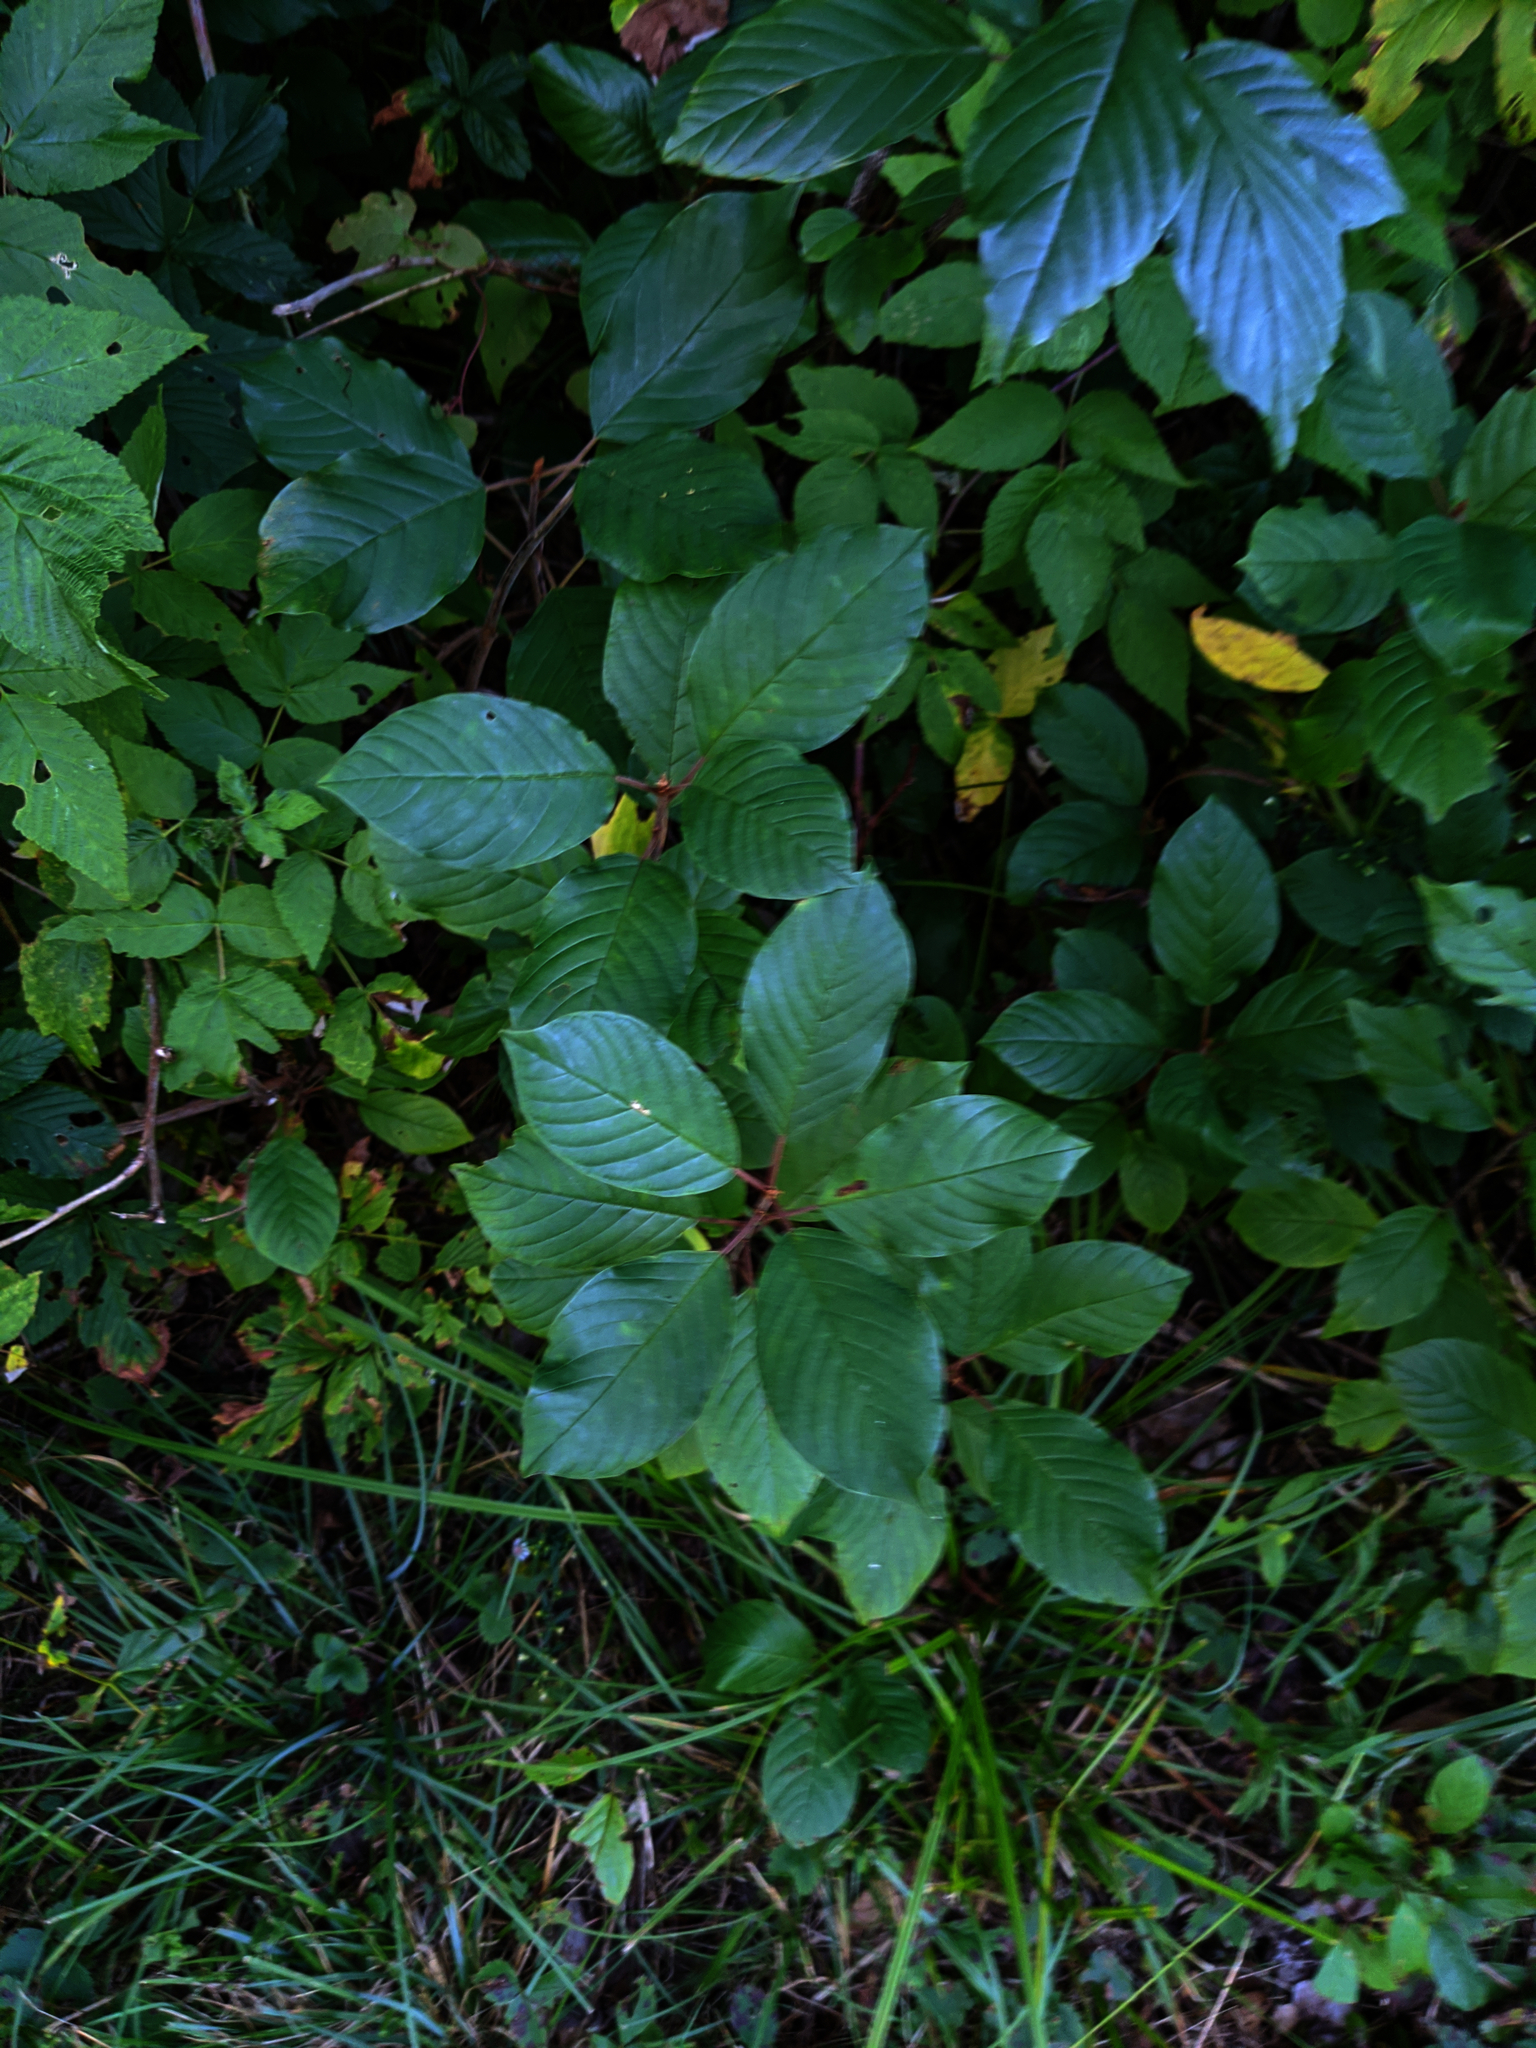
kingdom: Plantae
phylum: Tracheophyta
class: Magnoliopsida
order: Rosales
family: Rhamnaceae
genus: Frangula
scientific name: Frangula alnus
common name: Alder buckthorn
